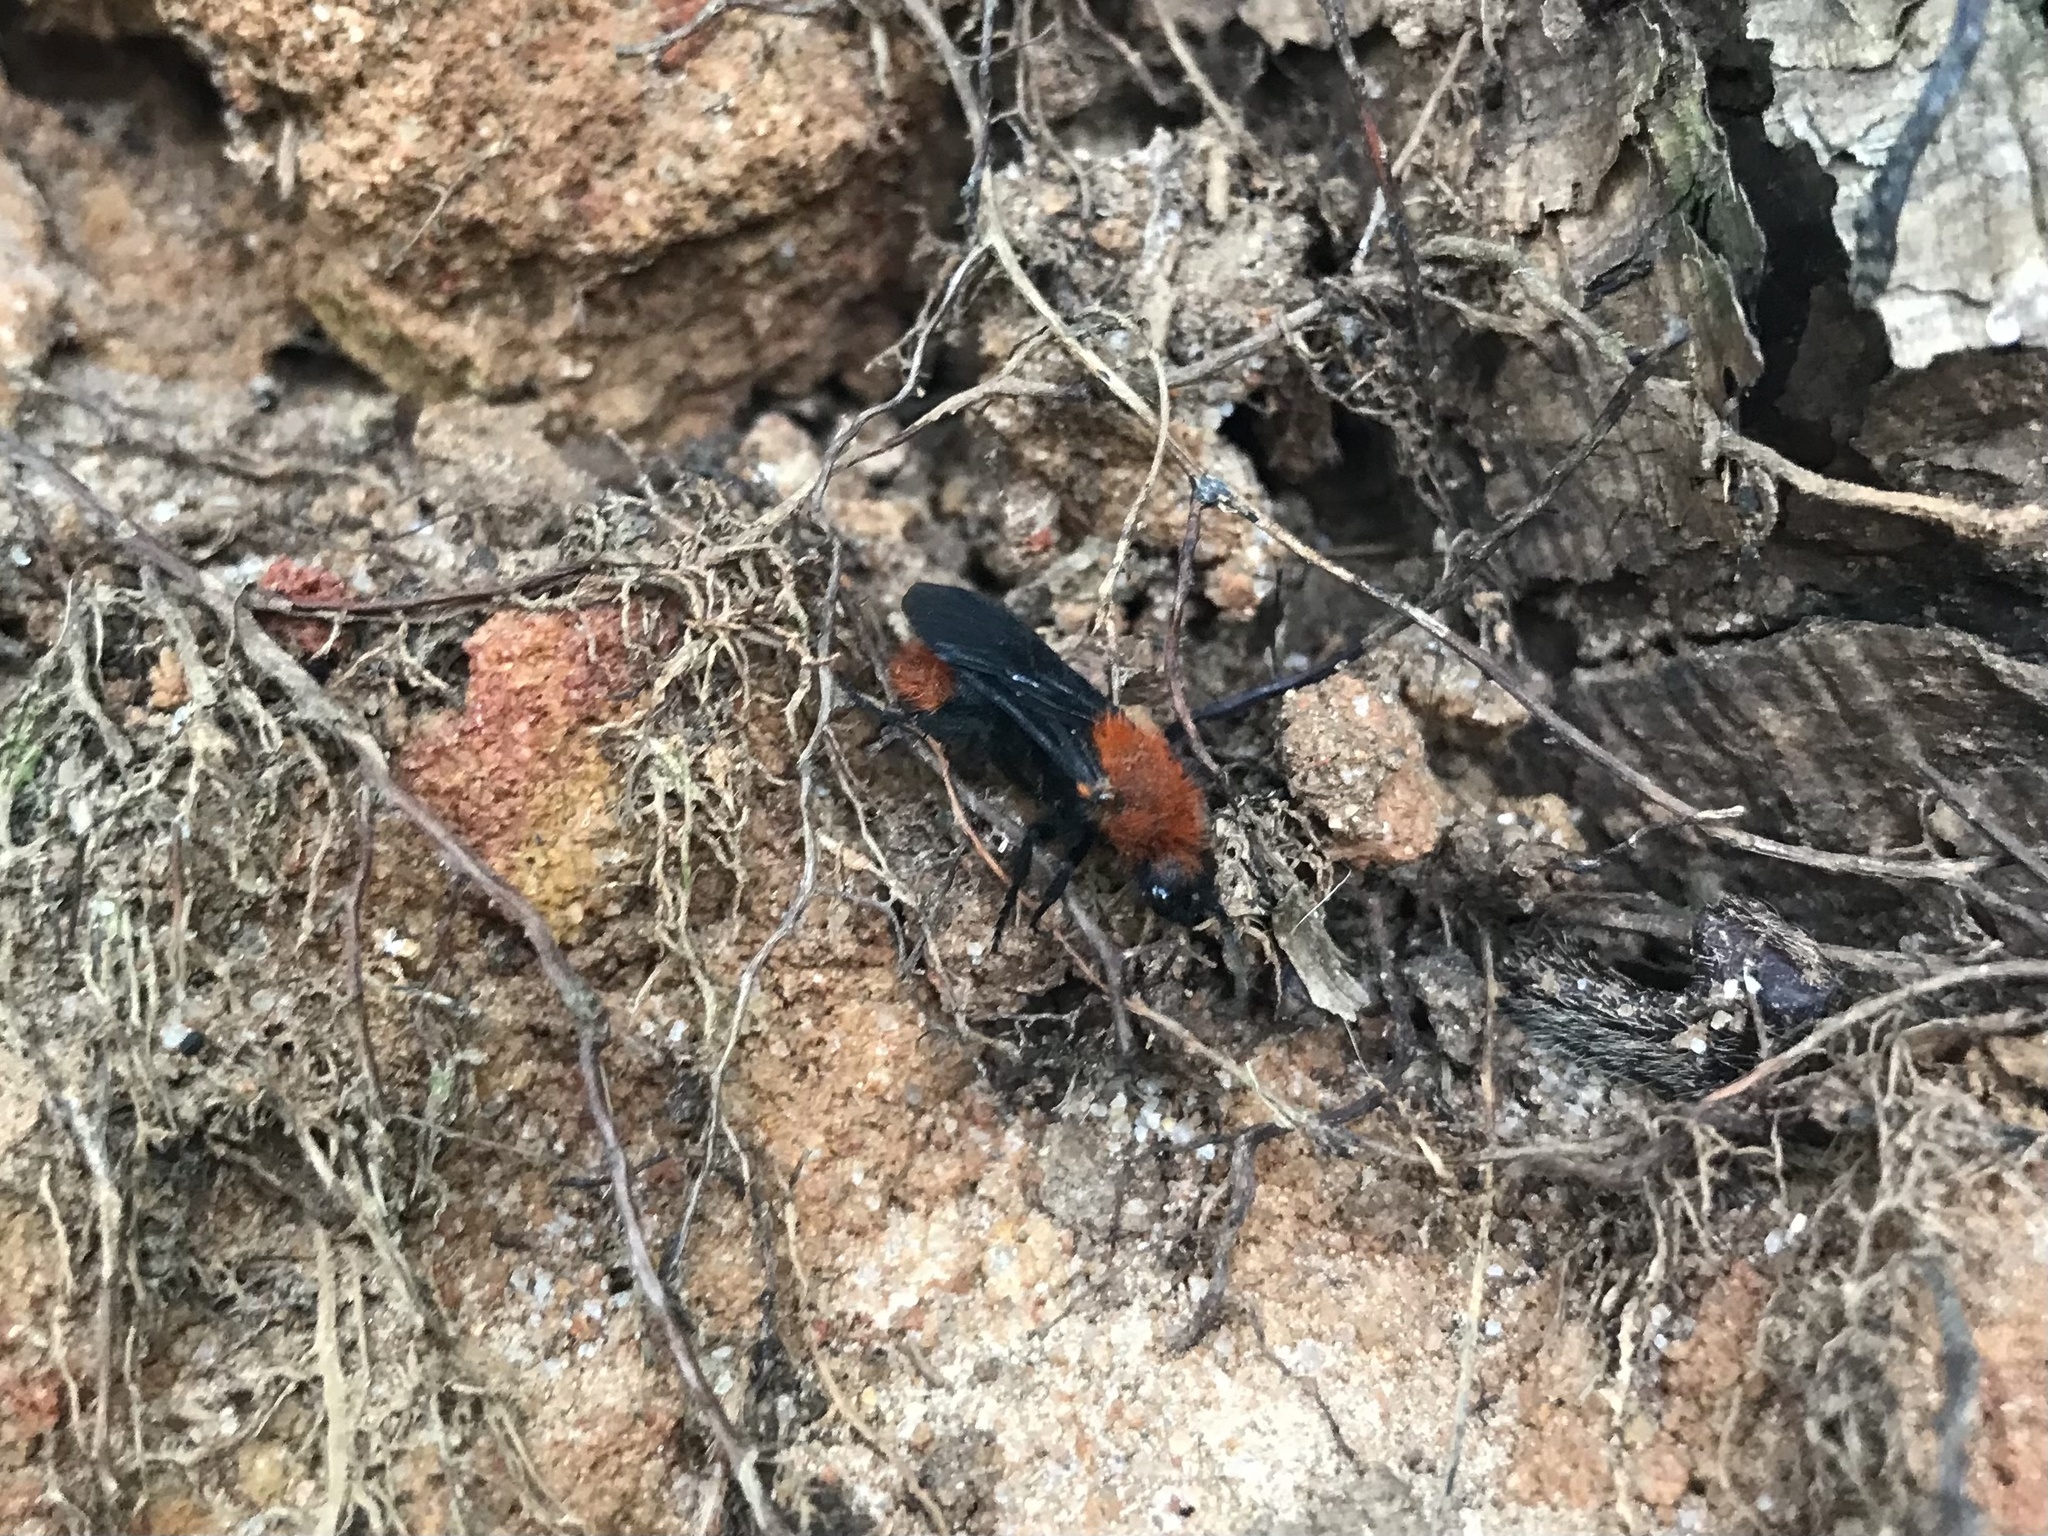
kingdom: Animalia
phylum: Arthropoda
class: Insecta
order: Hymenoptera
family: Mutillidae
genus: Dasymutilla
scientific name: Dasymutilla vestita
